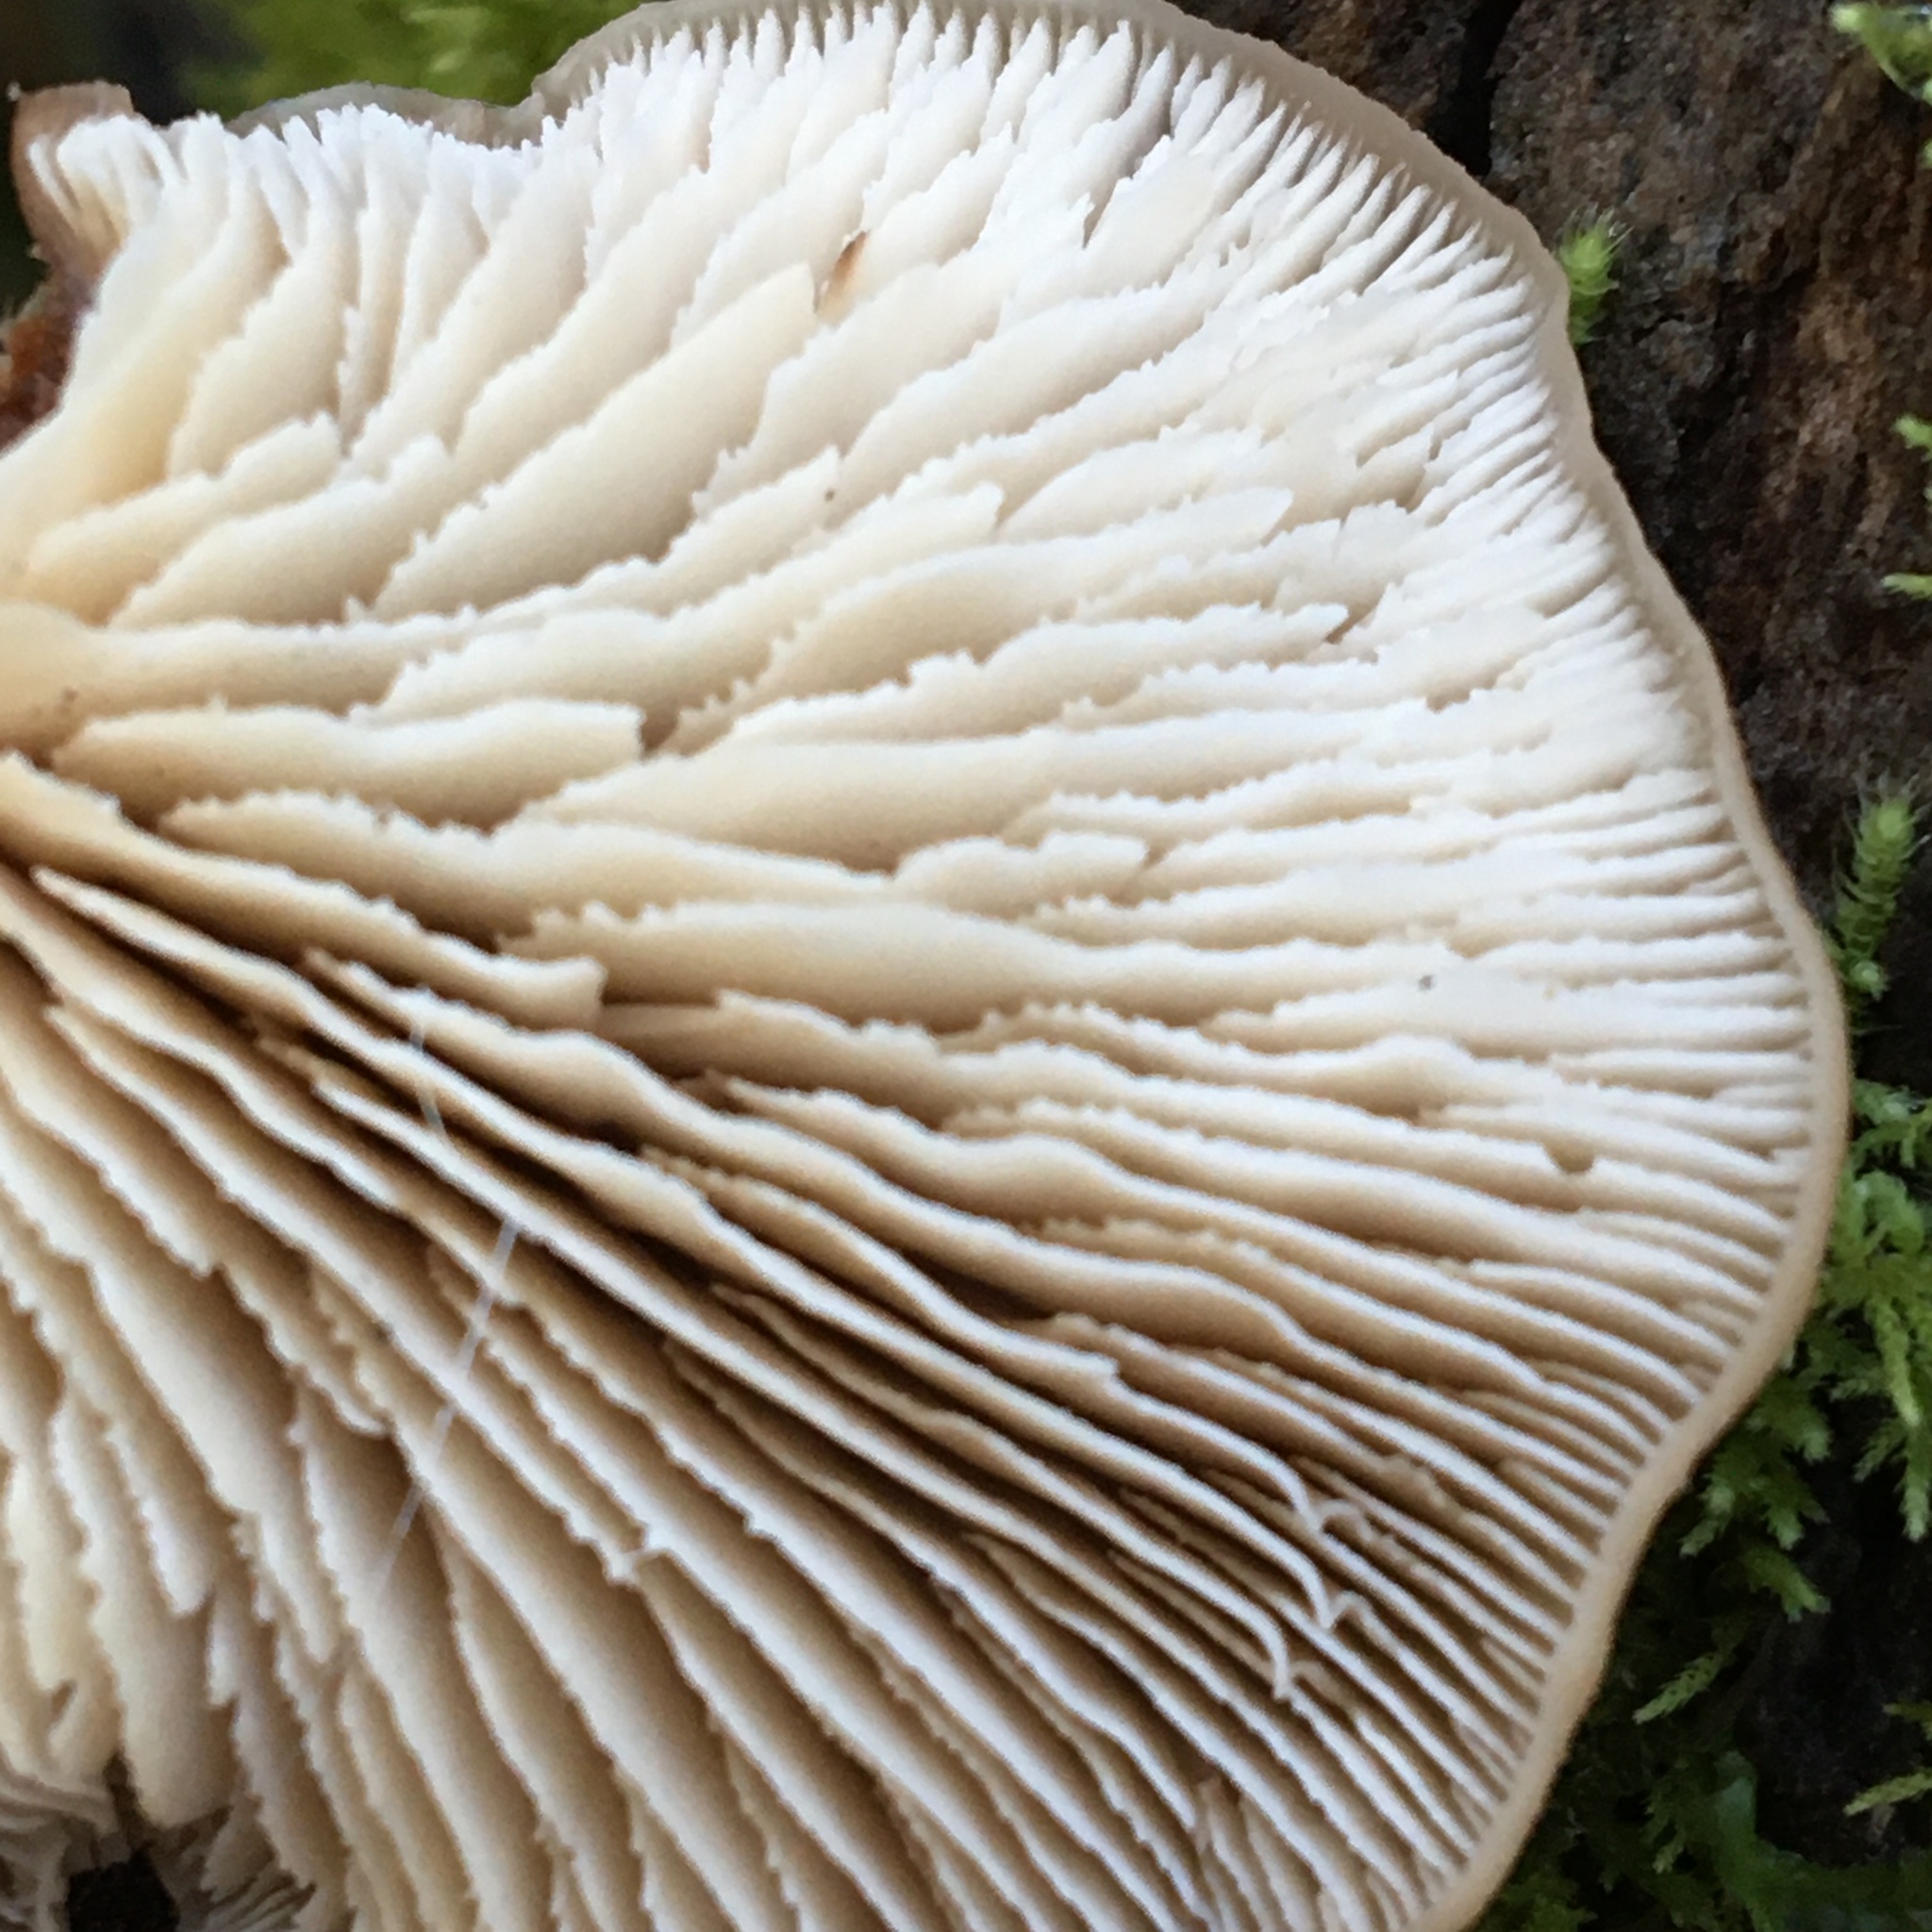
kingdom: Fungi
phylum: Basidiomycota
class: Agaricomycetes
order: Russulales
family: Auriscalpiaceae
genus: Lentinellus
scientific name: Lentinellus pulvinulus
